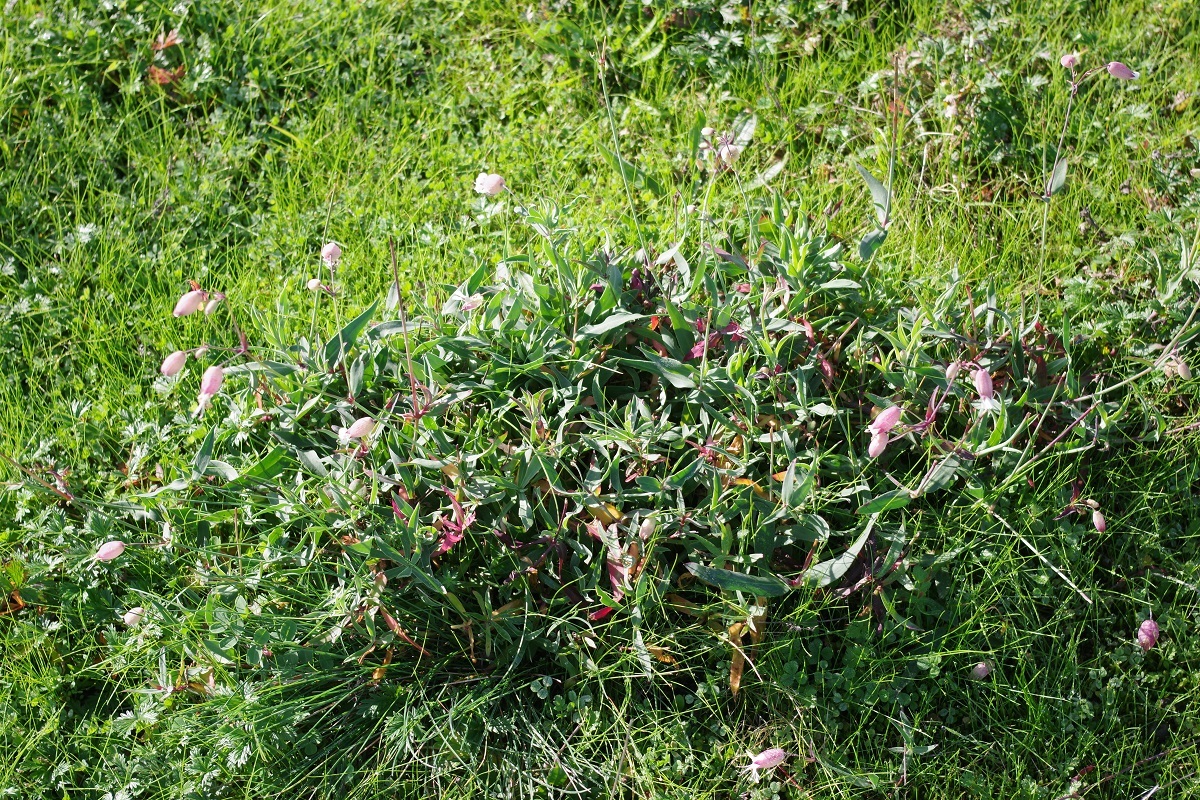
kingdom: Plantae
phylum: Tracheophyta
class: Magnoliopsida
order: Caryophyllales
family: Caryophyllaceae
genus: Silene
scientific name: Silene vulgaris
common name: Bladder campion
